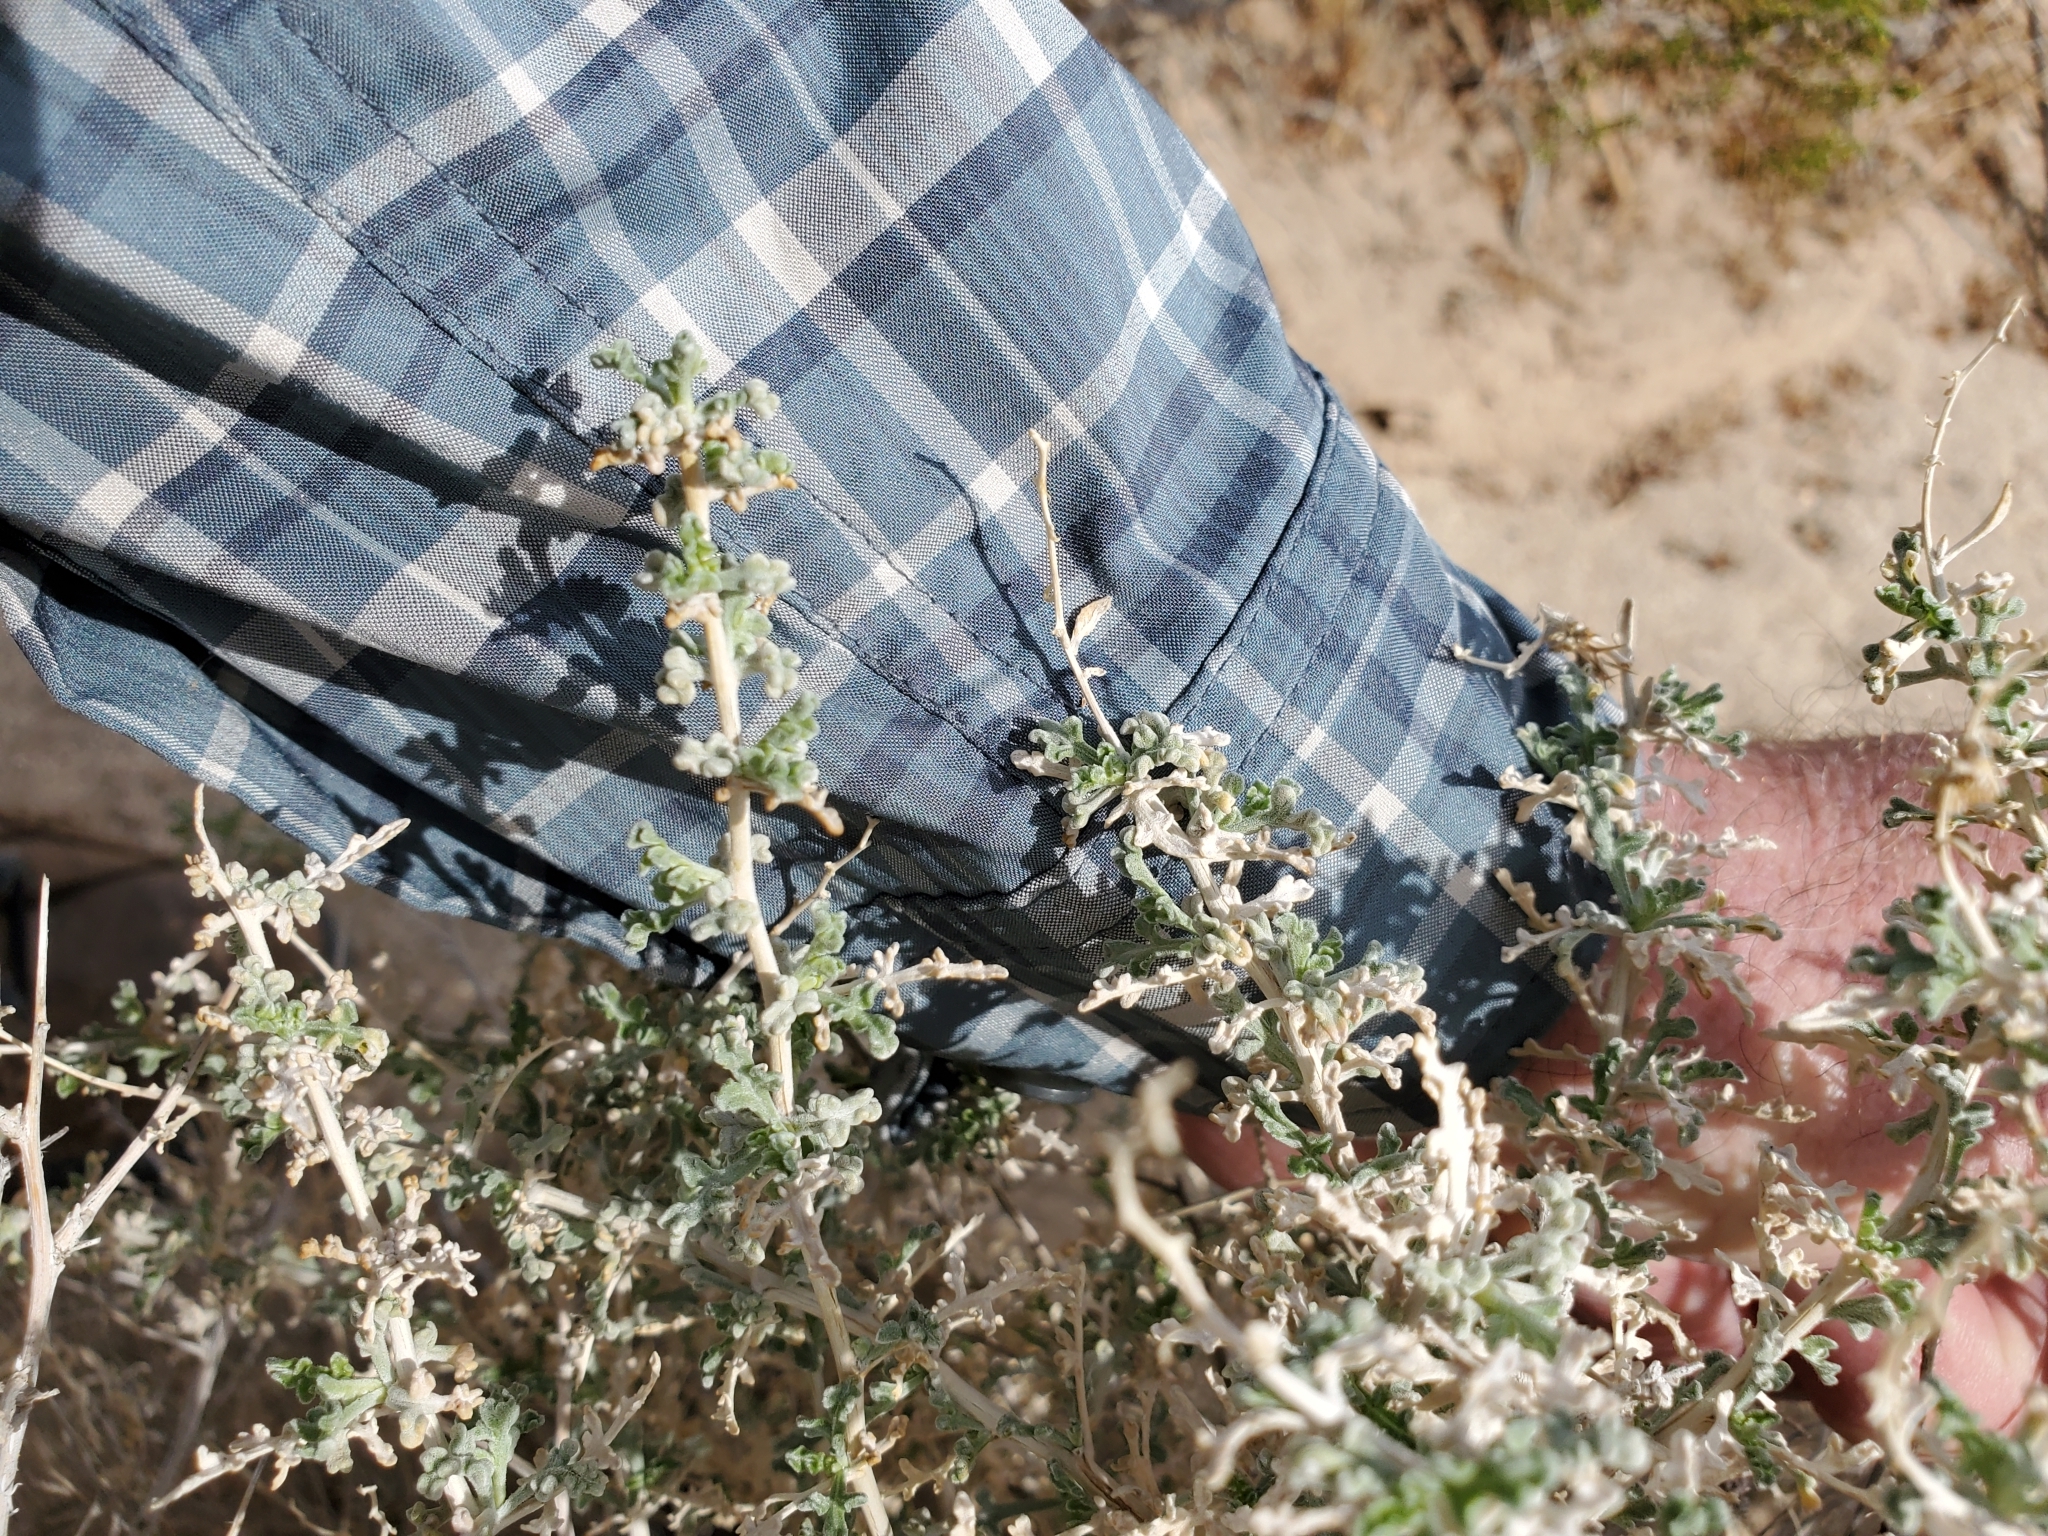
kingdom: Plantae
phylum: Tracheophyta
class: Magnoliopsida
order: Asterales
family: Asteraceae
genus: Ambrosia
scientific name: Ambrosia dumosa
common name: Bur-sage
